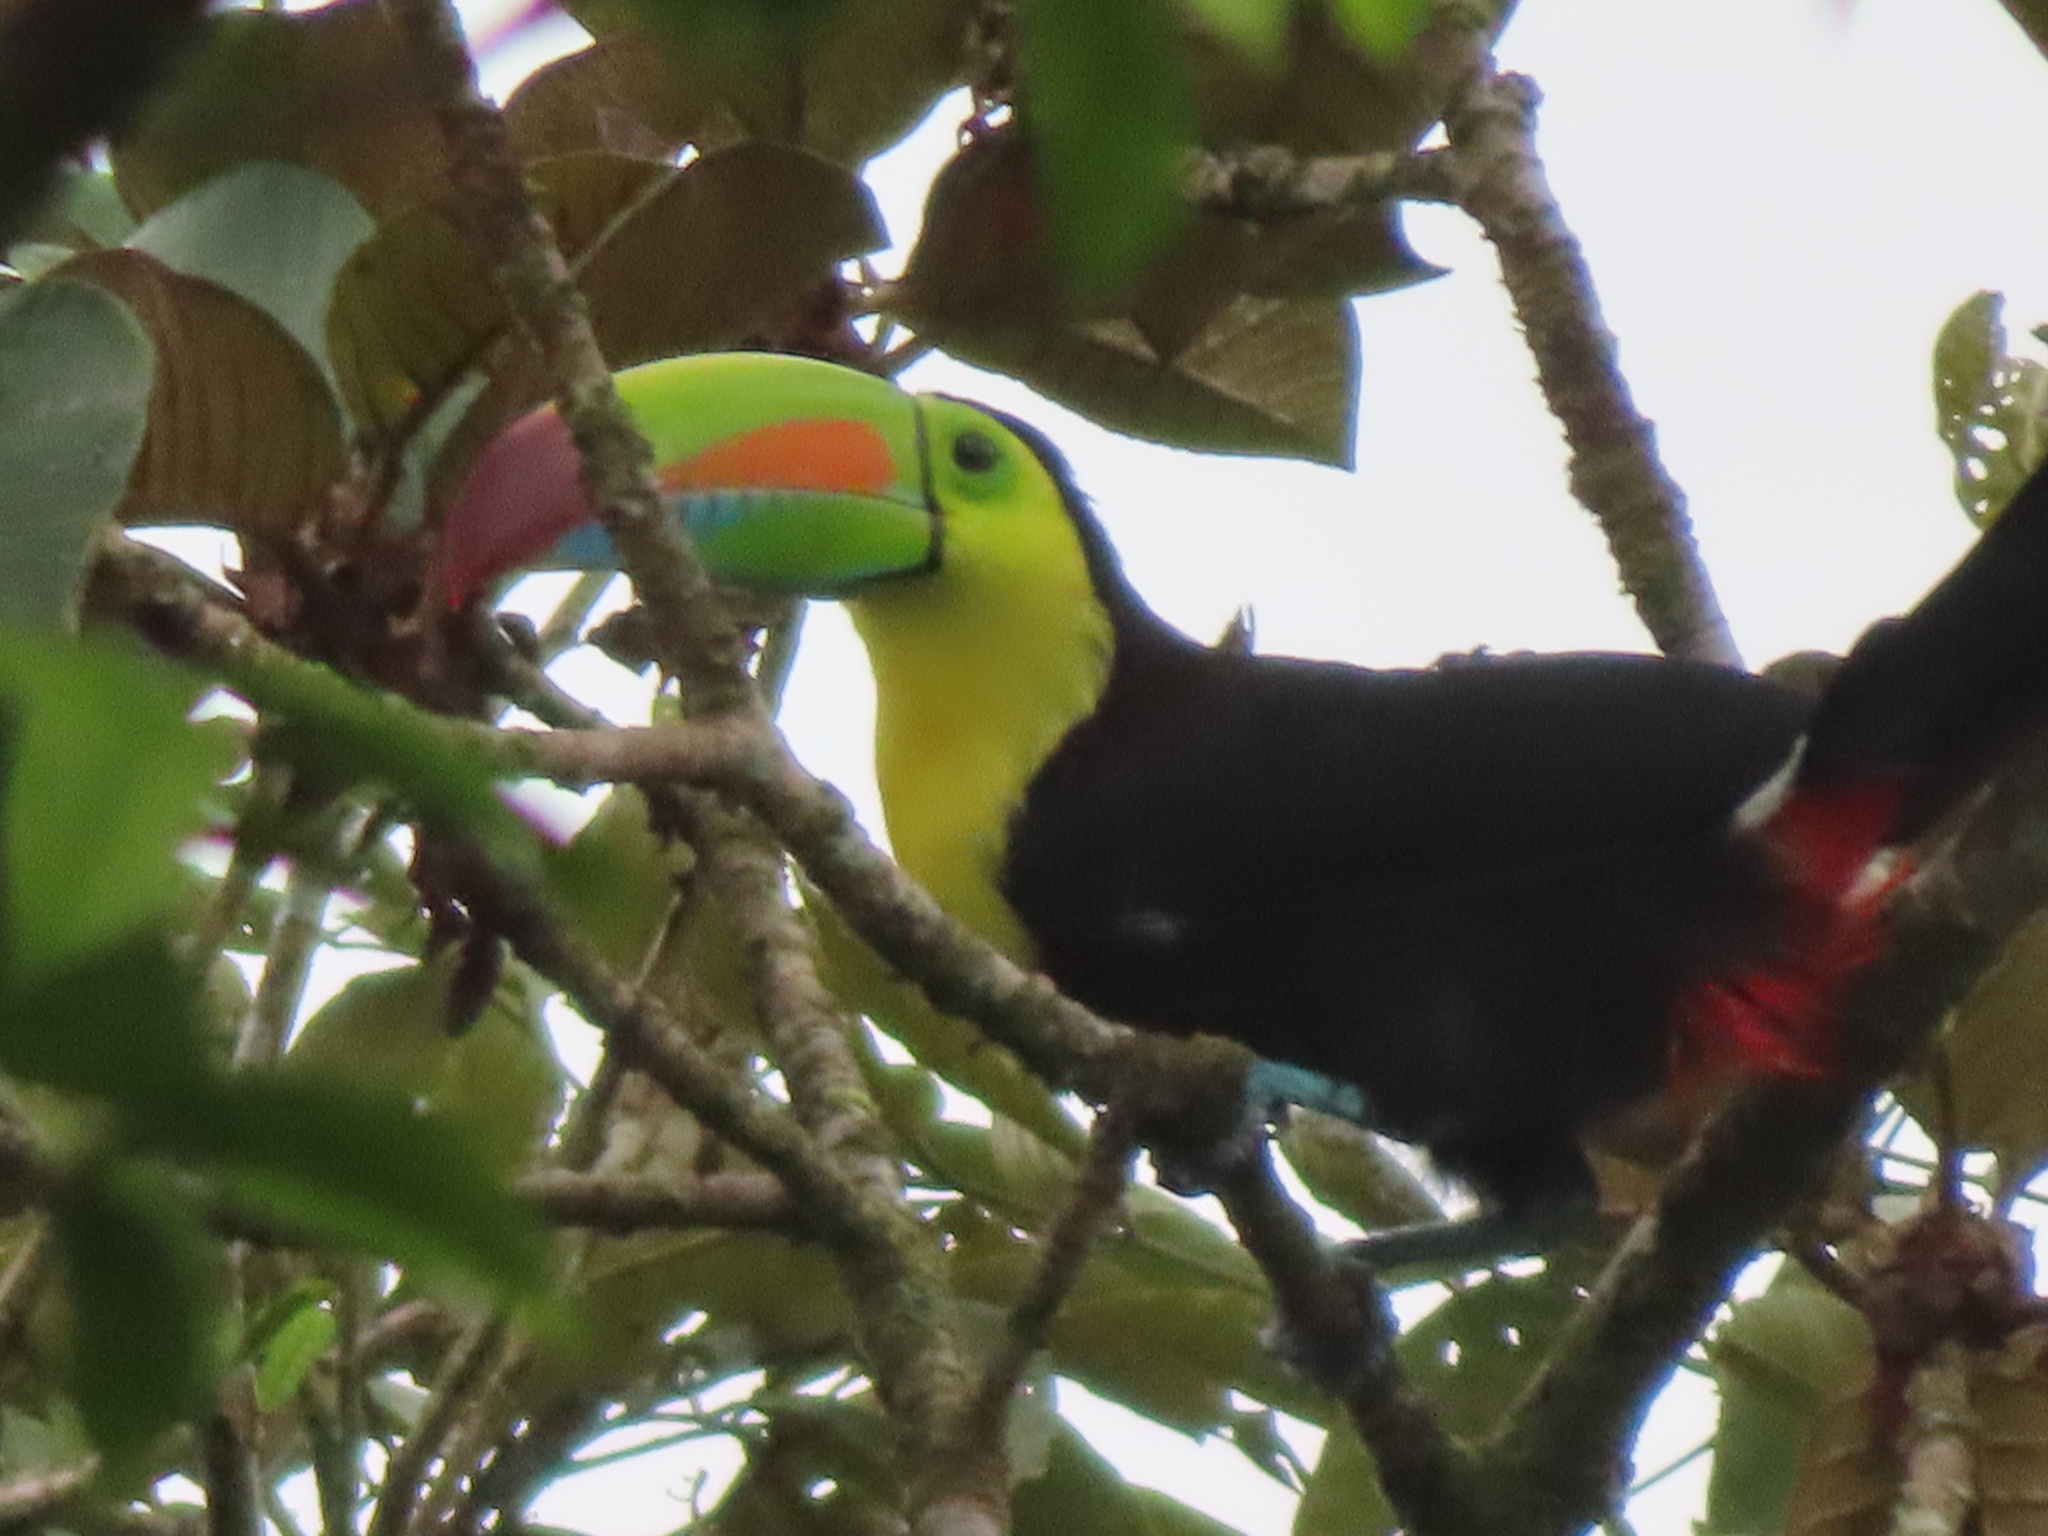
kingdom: Animalia
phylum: Chordata
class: Aves
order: Piciformes
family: Ramphastidae
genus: Ramphastos
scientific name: Ramphastos sulfuratus
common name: Keel-billed toucan
